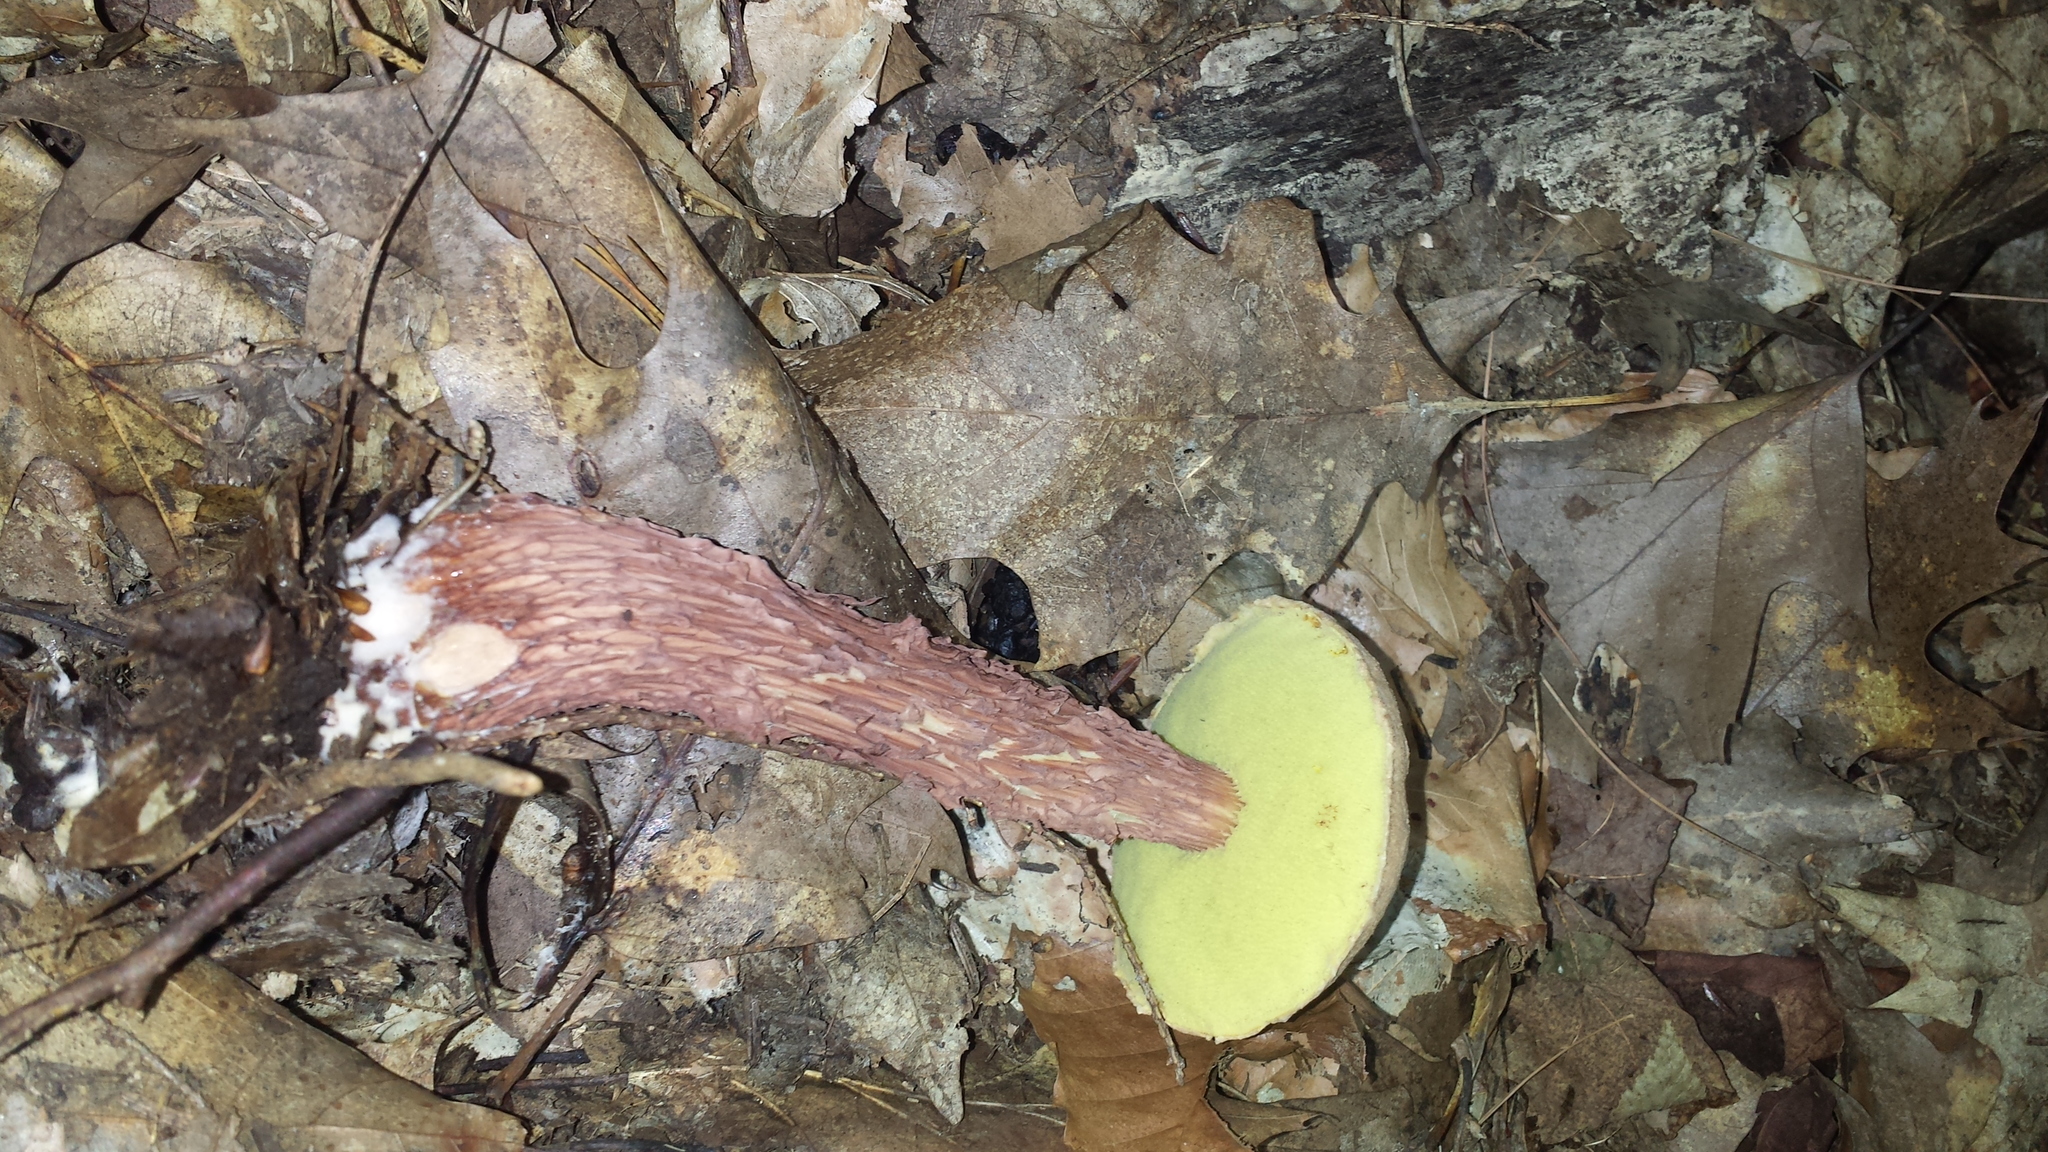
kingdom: Fungi
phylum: Basidiomycota
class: Agaricomycetes
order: Boletales
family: Boletaceae
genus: Aureoboletus
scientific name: Aureoboletus russellii
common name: Russell's bolete
